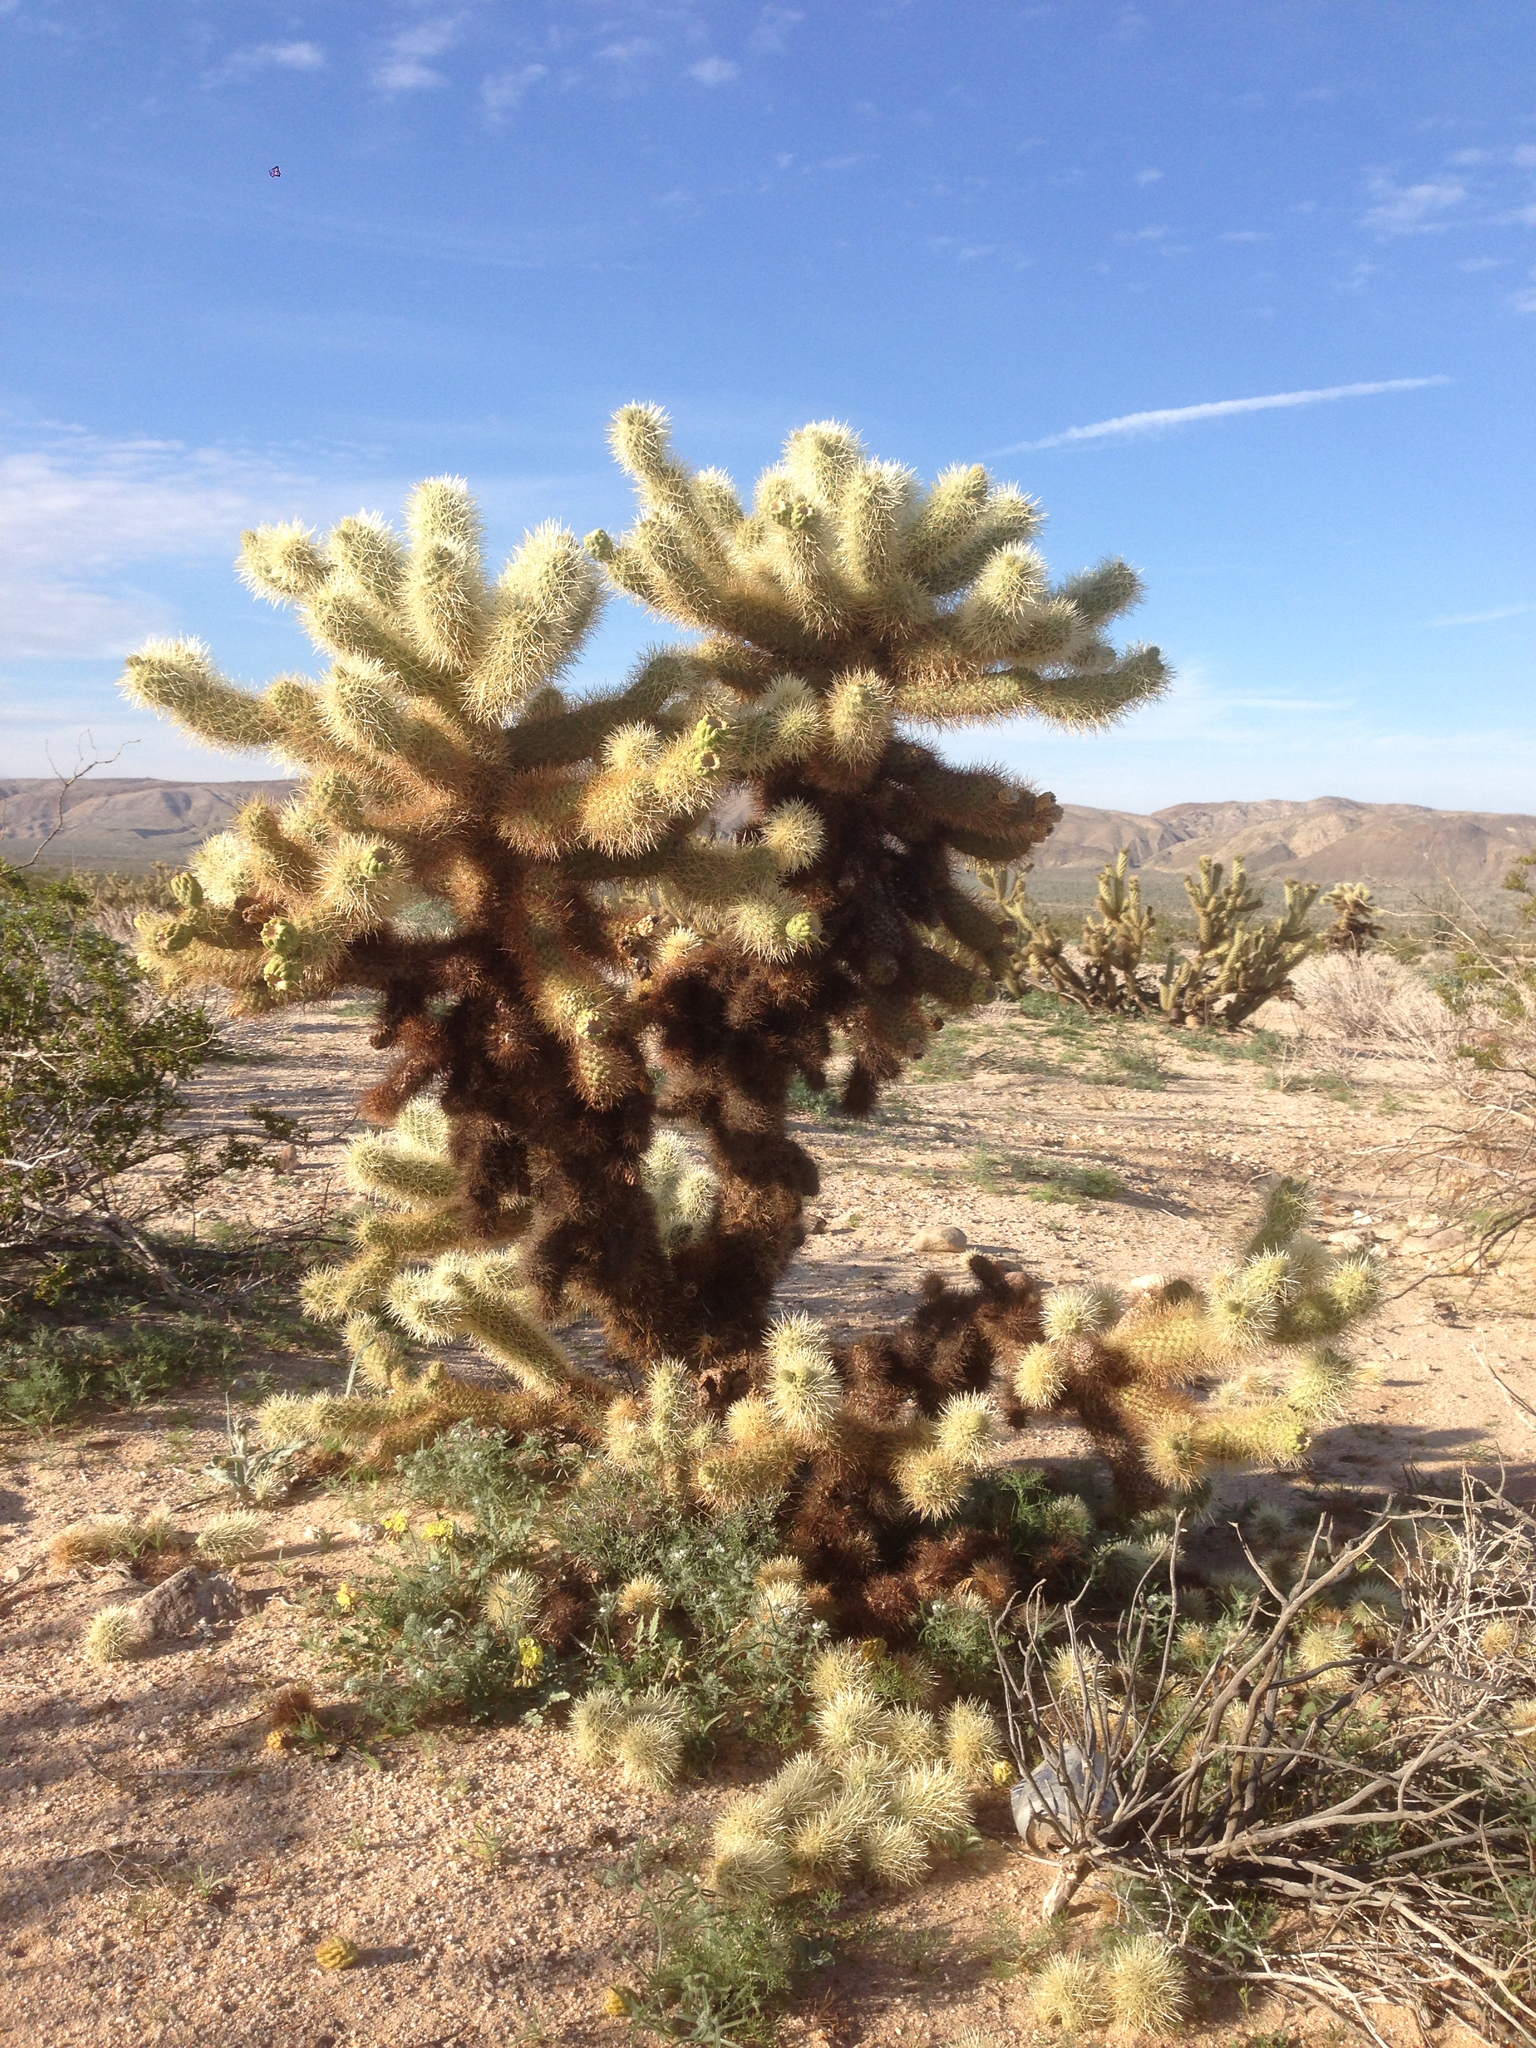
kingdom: Plantae
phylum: Tracheophyta
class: Magnoliopsida
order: Caryophyllales
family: Cactaceae
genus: Cylindropuntia
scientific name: Cylindropuntia fosbergii
